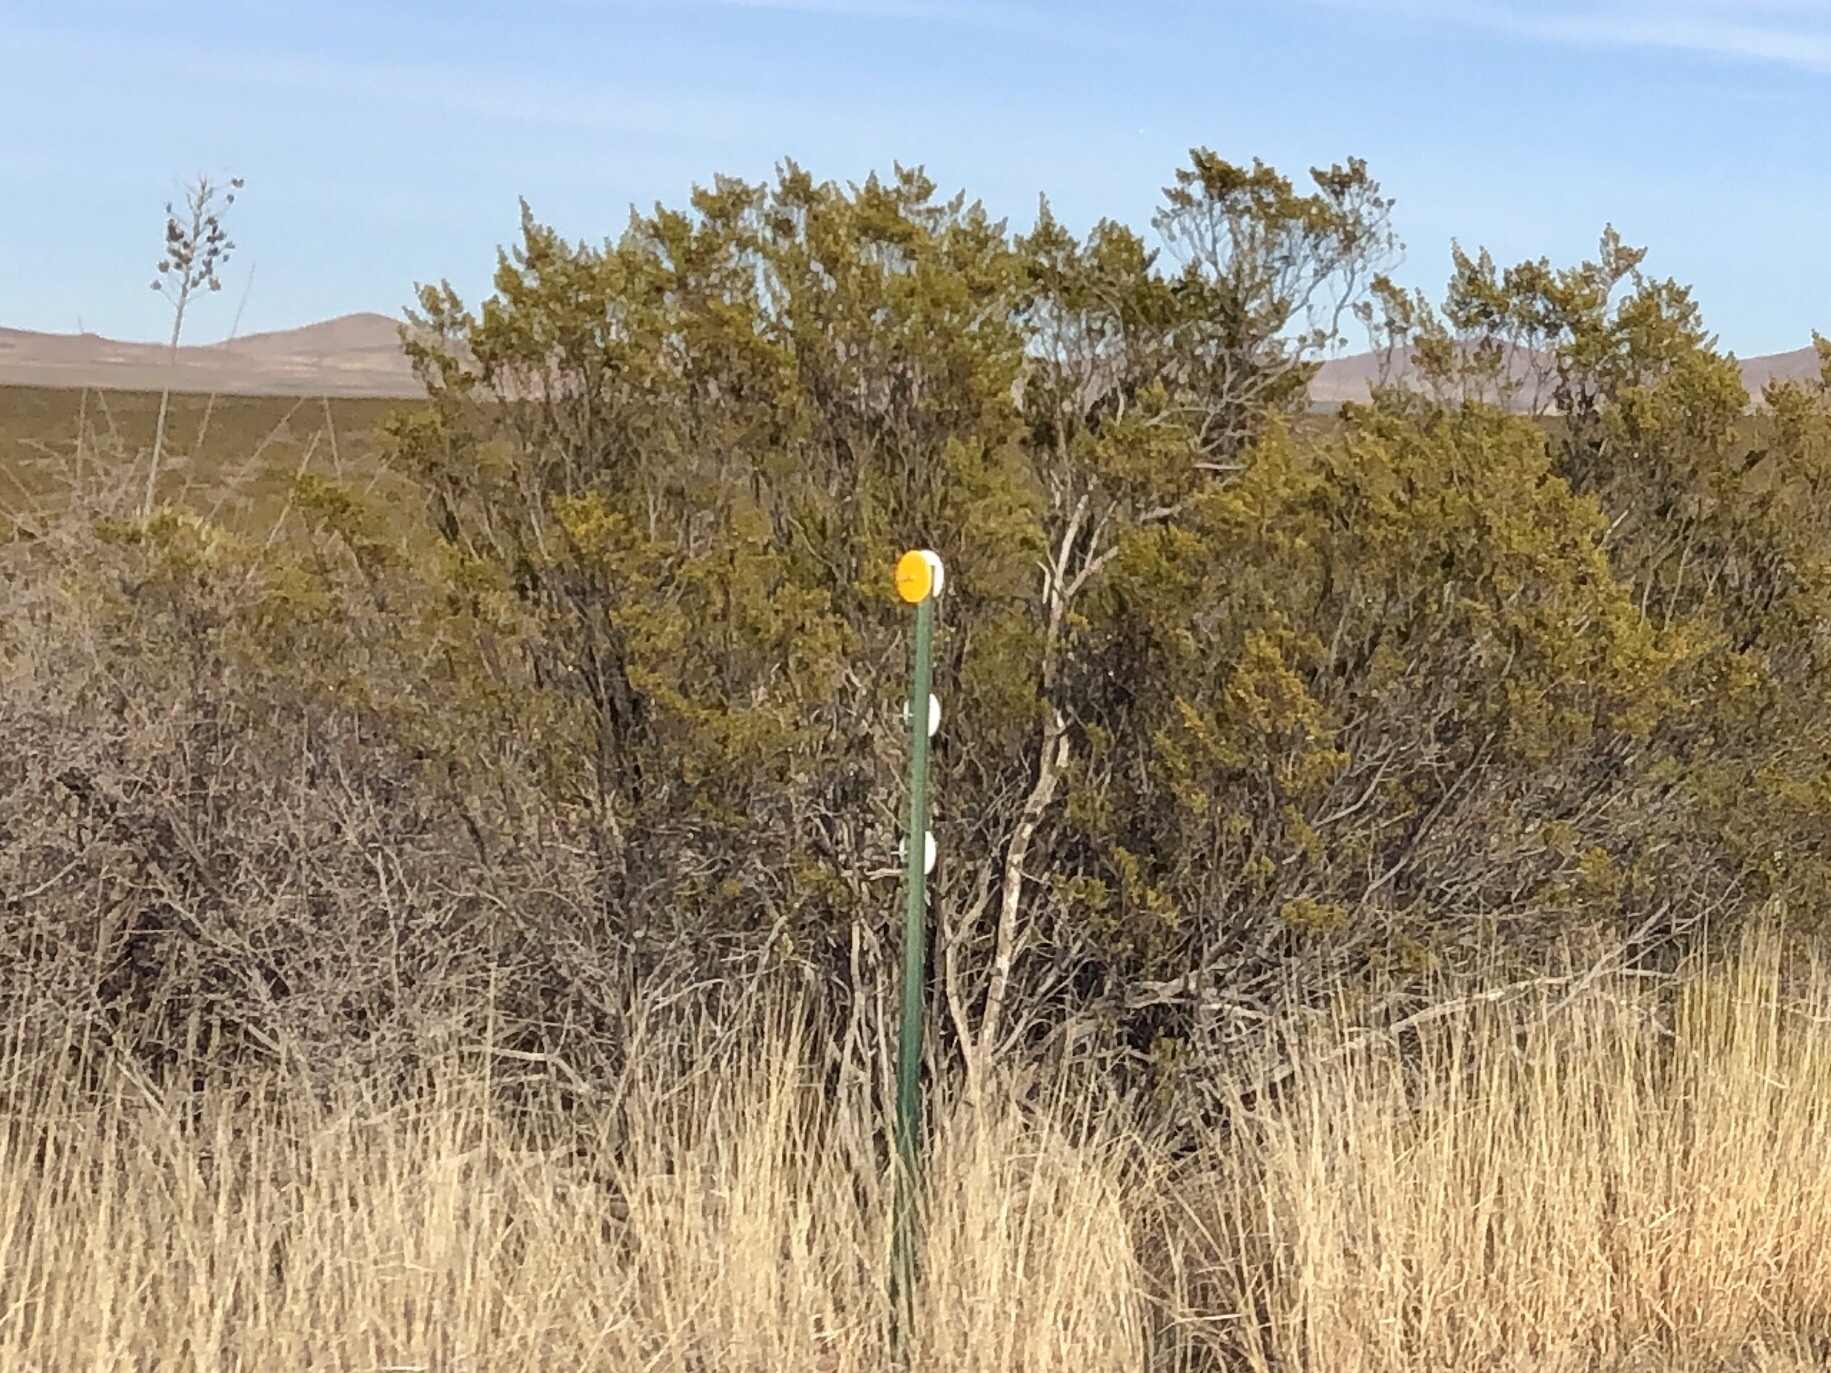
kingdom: Plantae
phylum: Tracheophyta
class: Magnoliopsida
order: Zygophyllales
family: Zygophyllaceae
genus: Larrea
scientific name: Larrea tridentata
